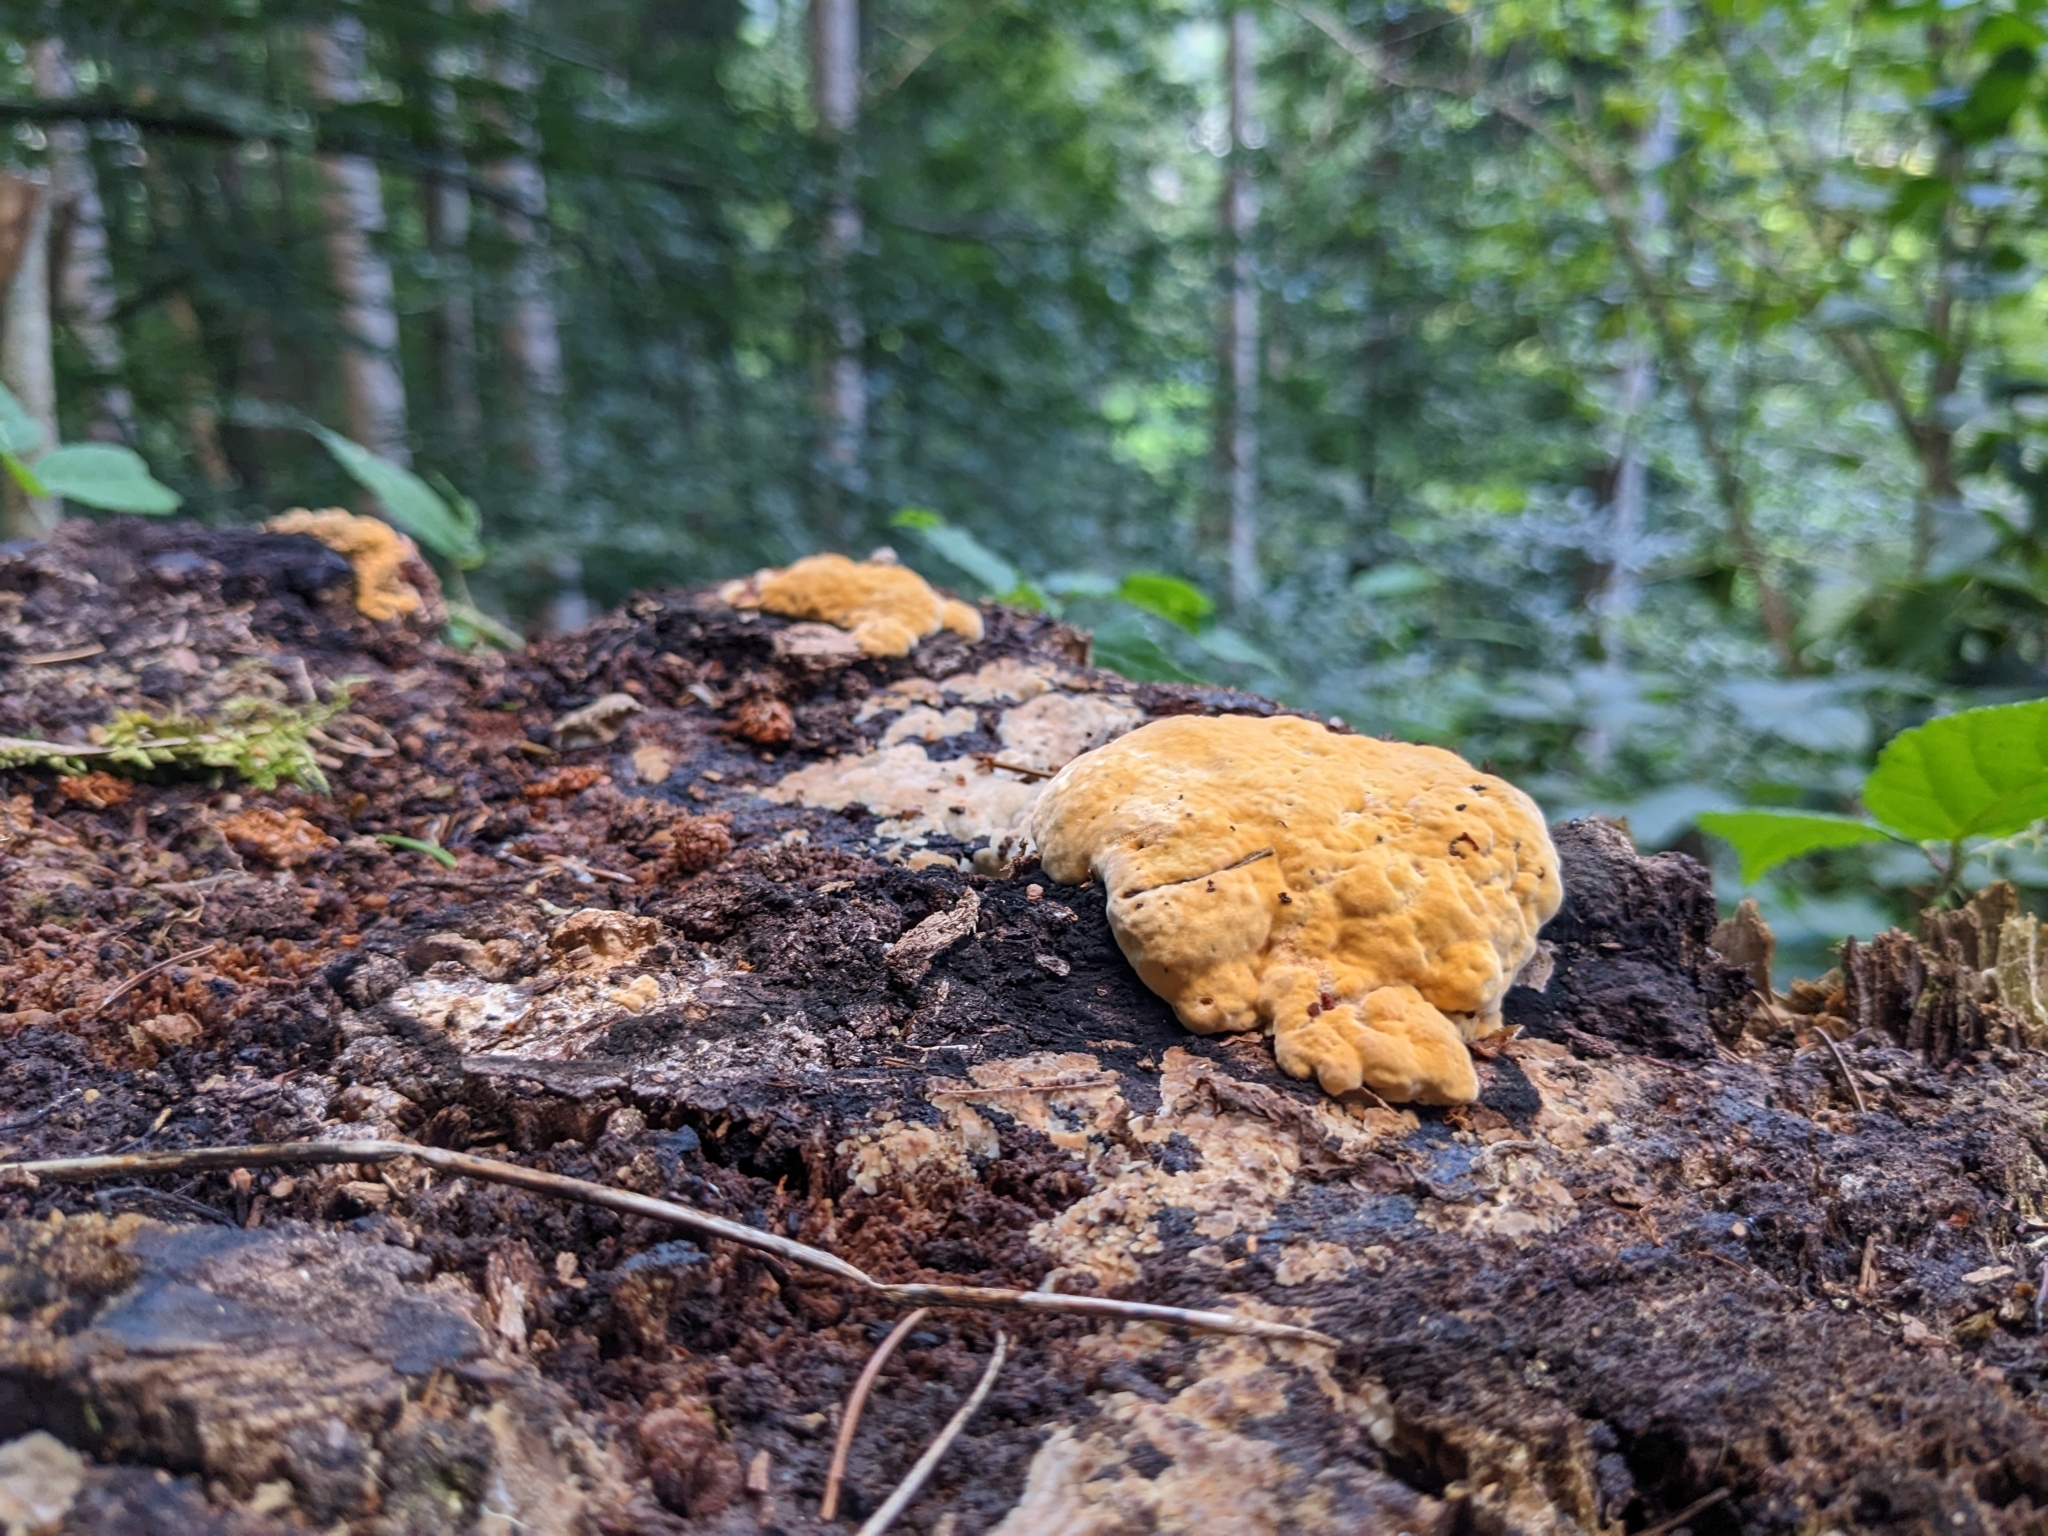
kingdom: Fungi
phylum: Basidiomycota
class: Agaricomycetes
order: Gloeophyllales
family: Gloeophyllaceae
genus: Gloeophyllum
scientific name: Gloeophyllum odoratum
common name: Anise mazegill
